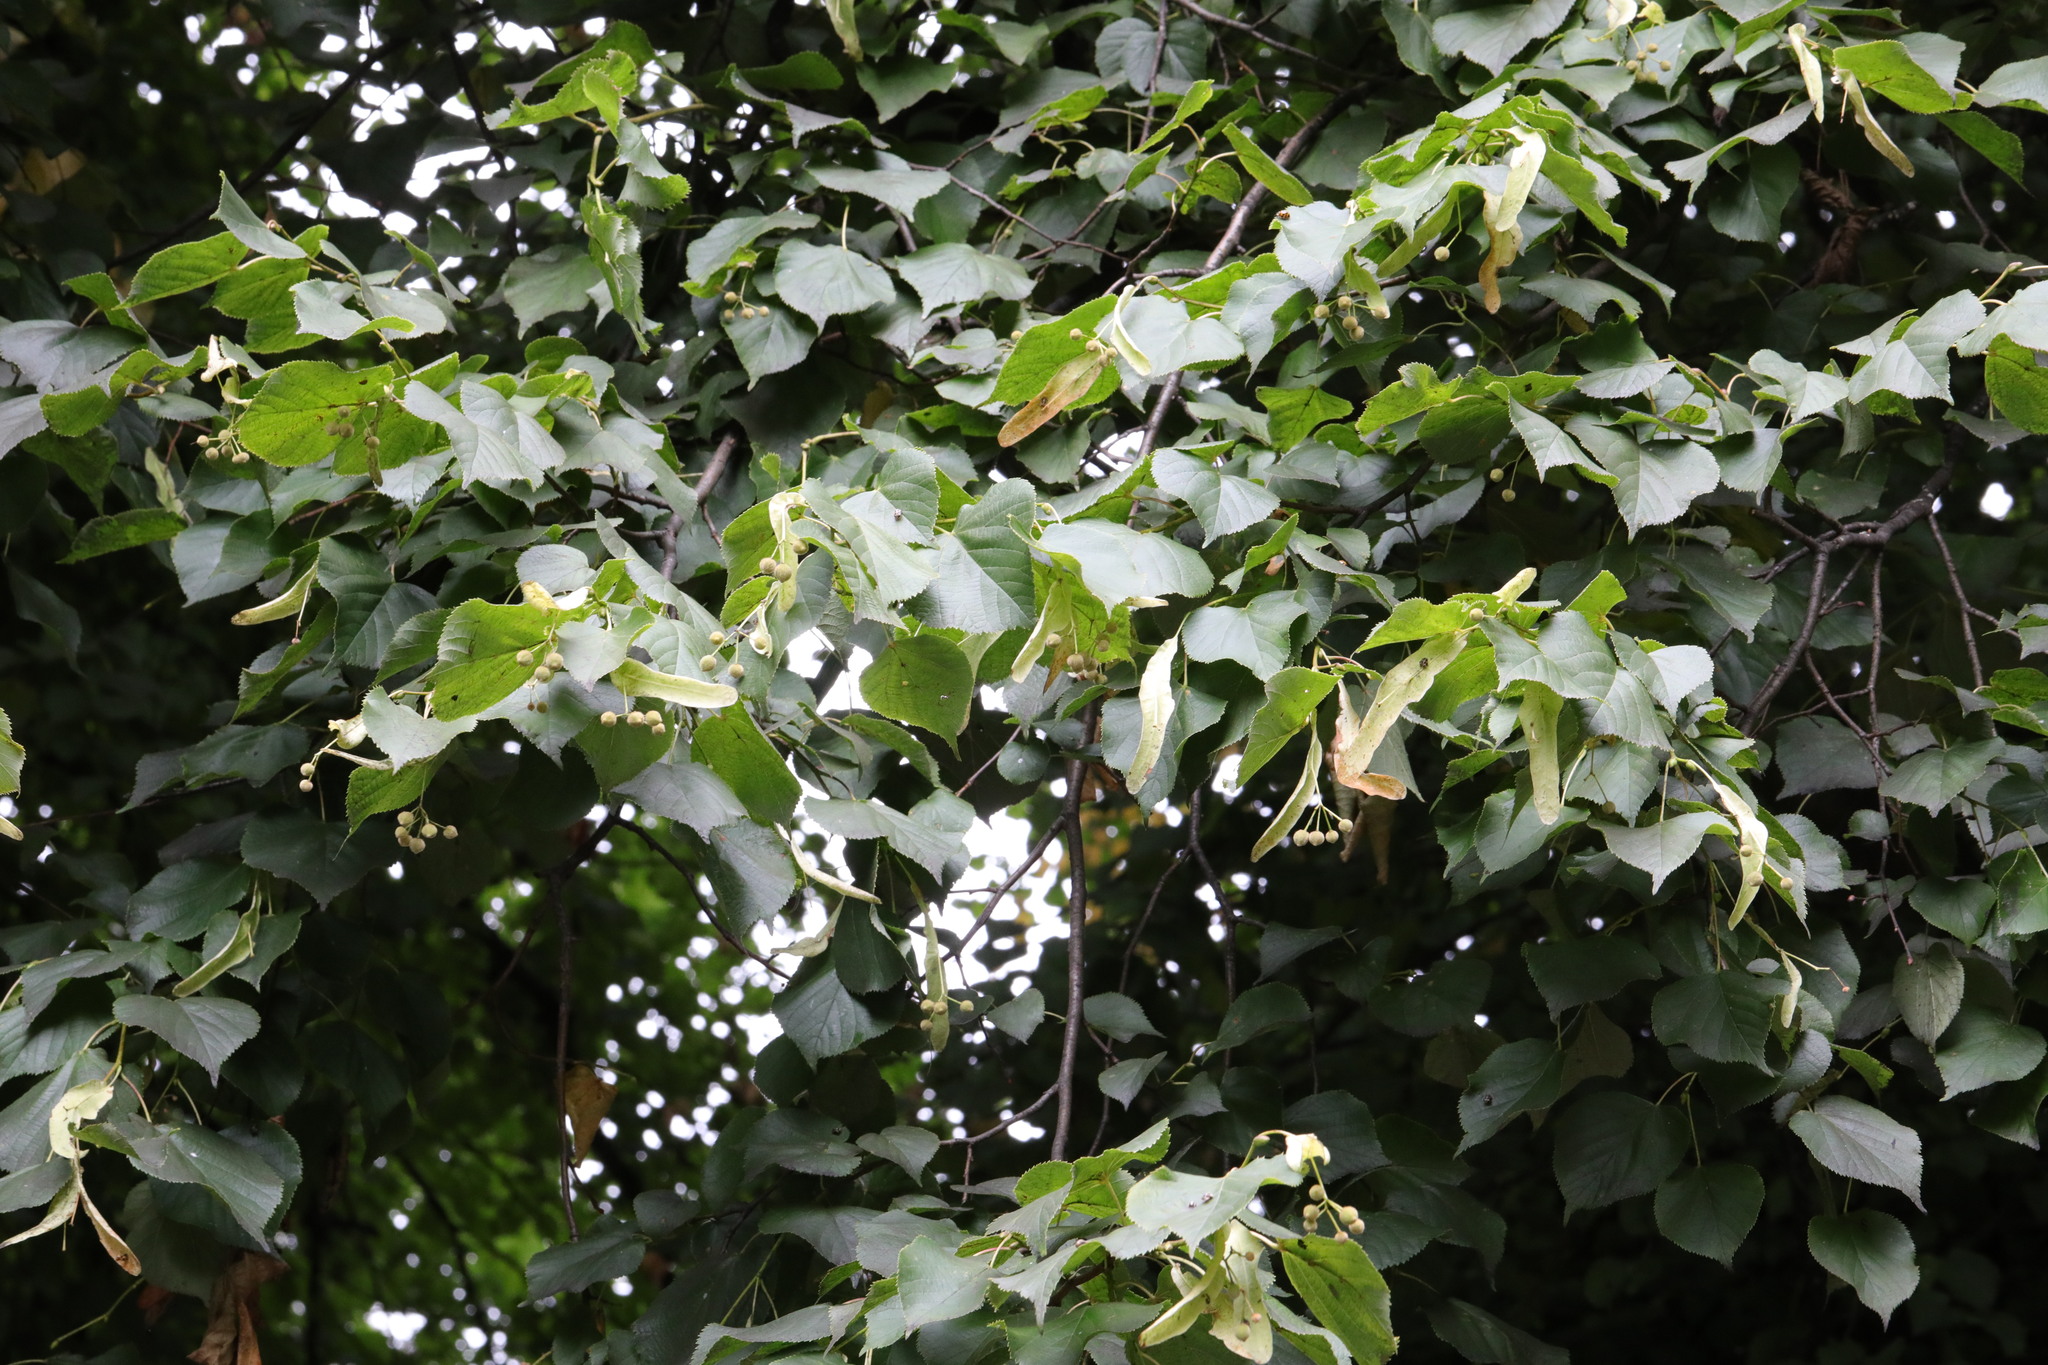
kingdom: Plantae
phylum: Tracheophyta
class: Magnoliopsida
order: Malvales
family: Malvaceae
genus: Tilia
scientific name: Tilia europaea
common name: European linden
